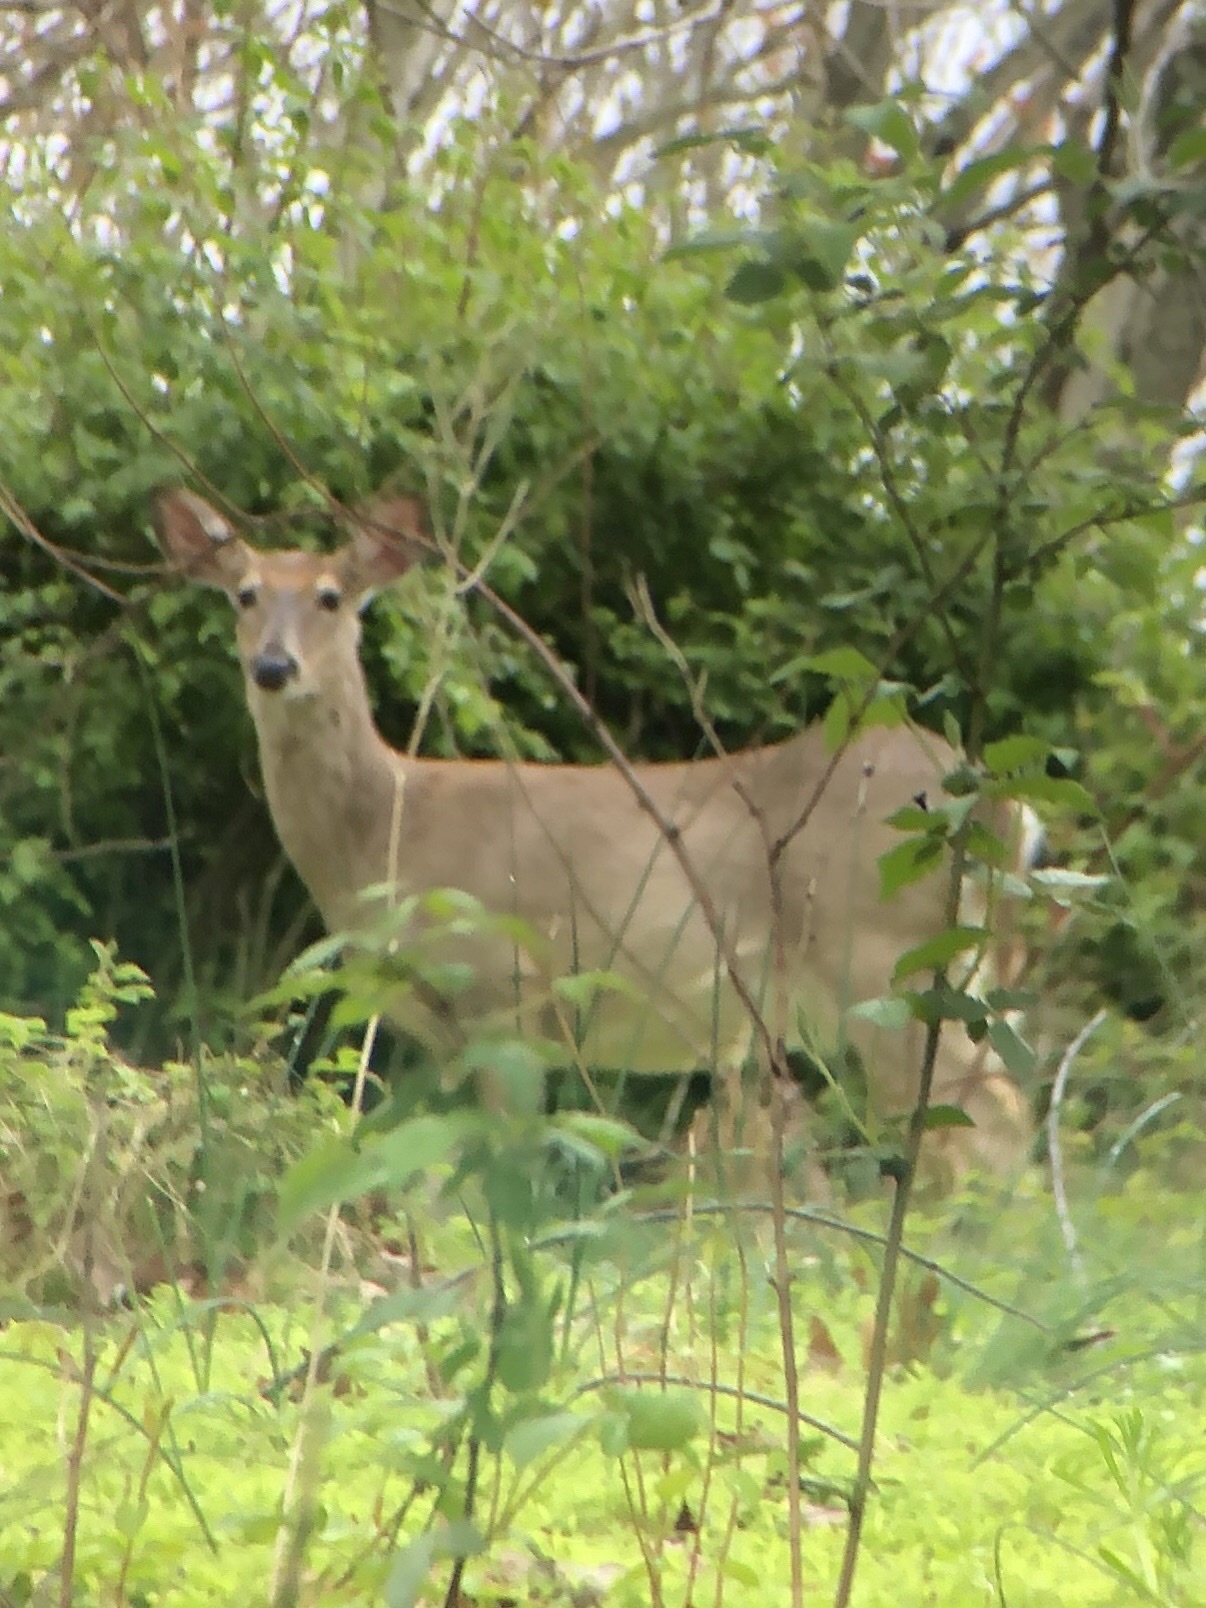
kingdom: Animalia
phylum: Chordata
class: Mammalia
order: Artiodactyla
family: Cervidae
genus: Odocoileus
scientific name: Odocoileus virginianus
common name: White-tailed deer
